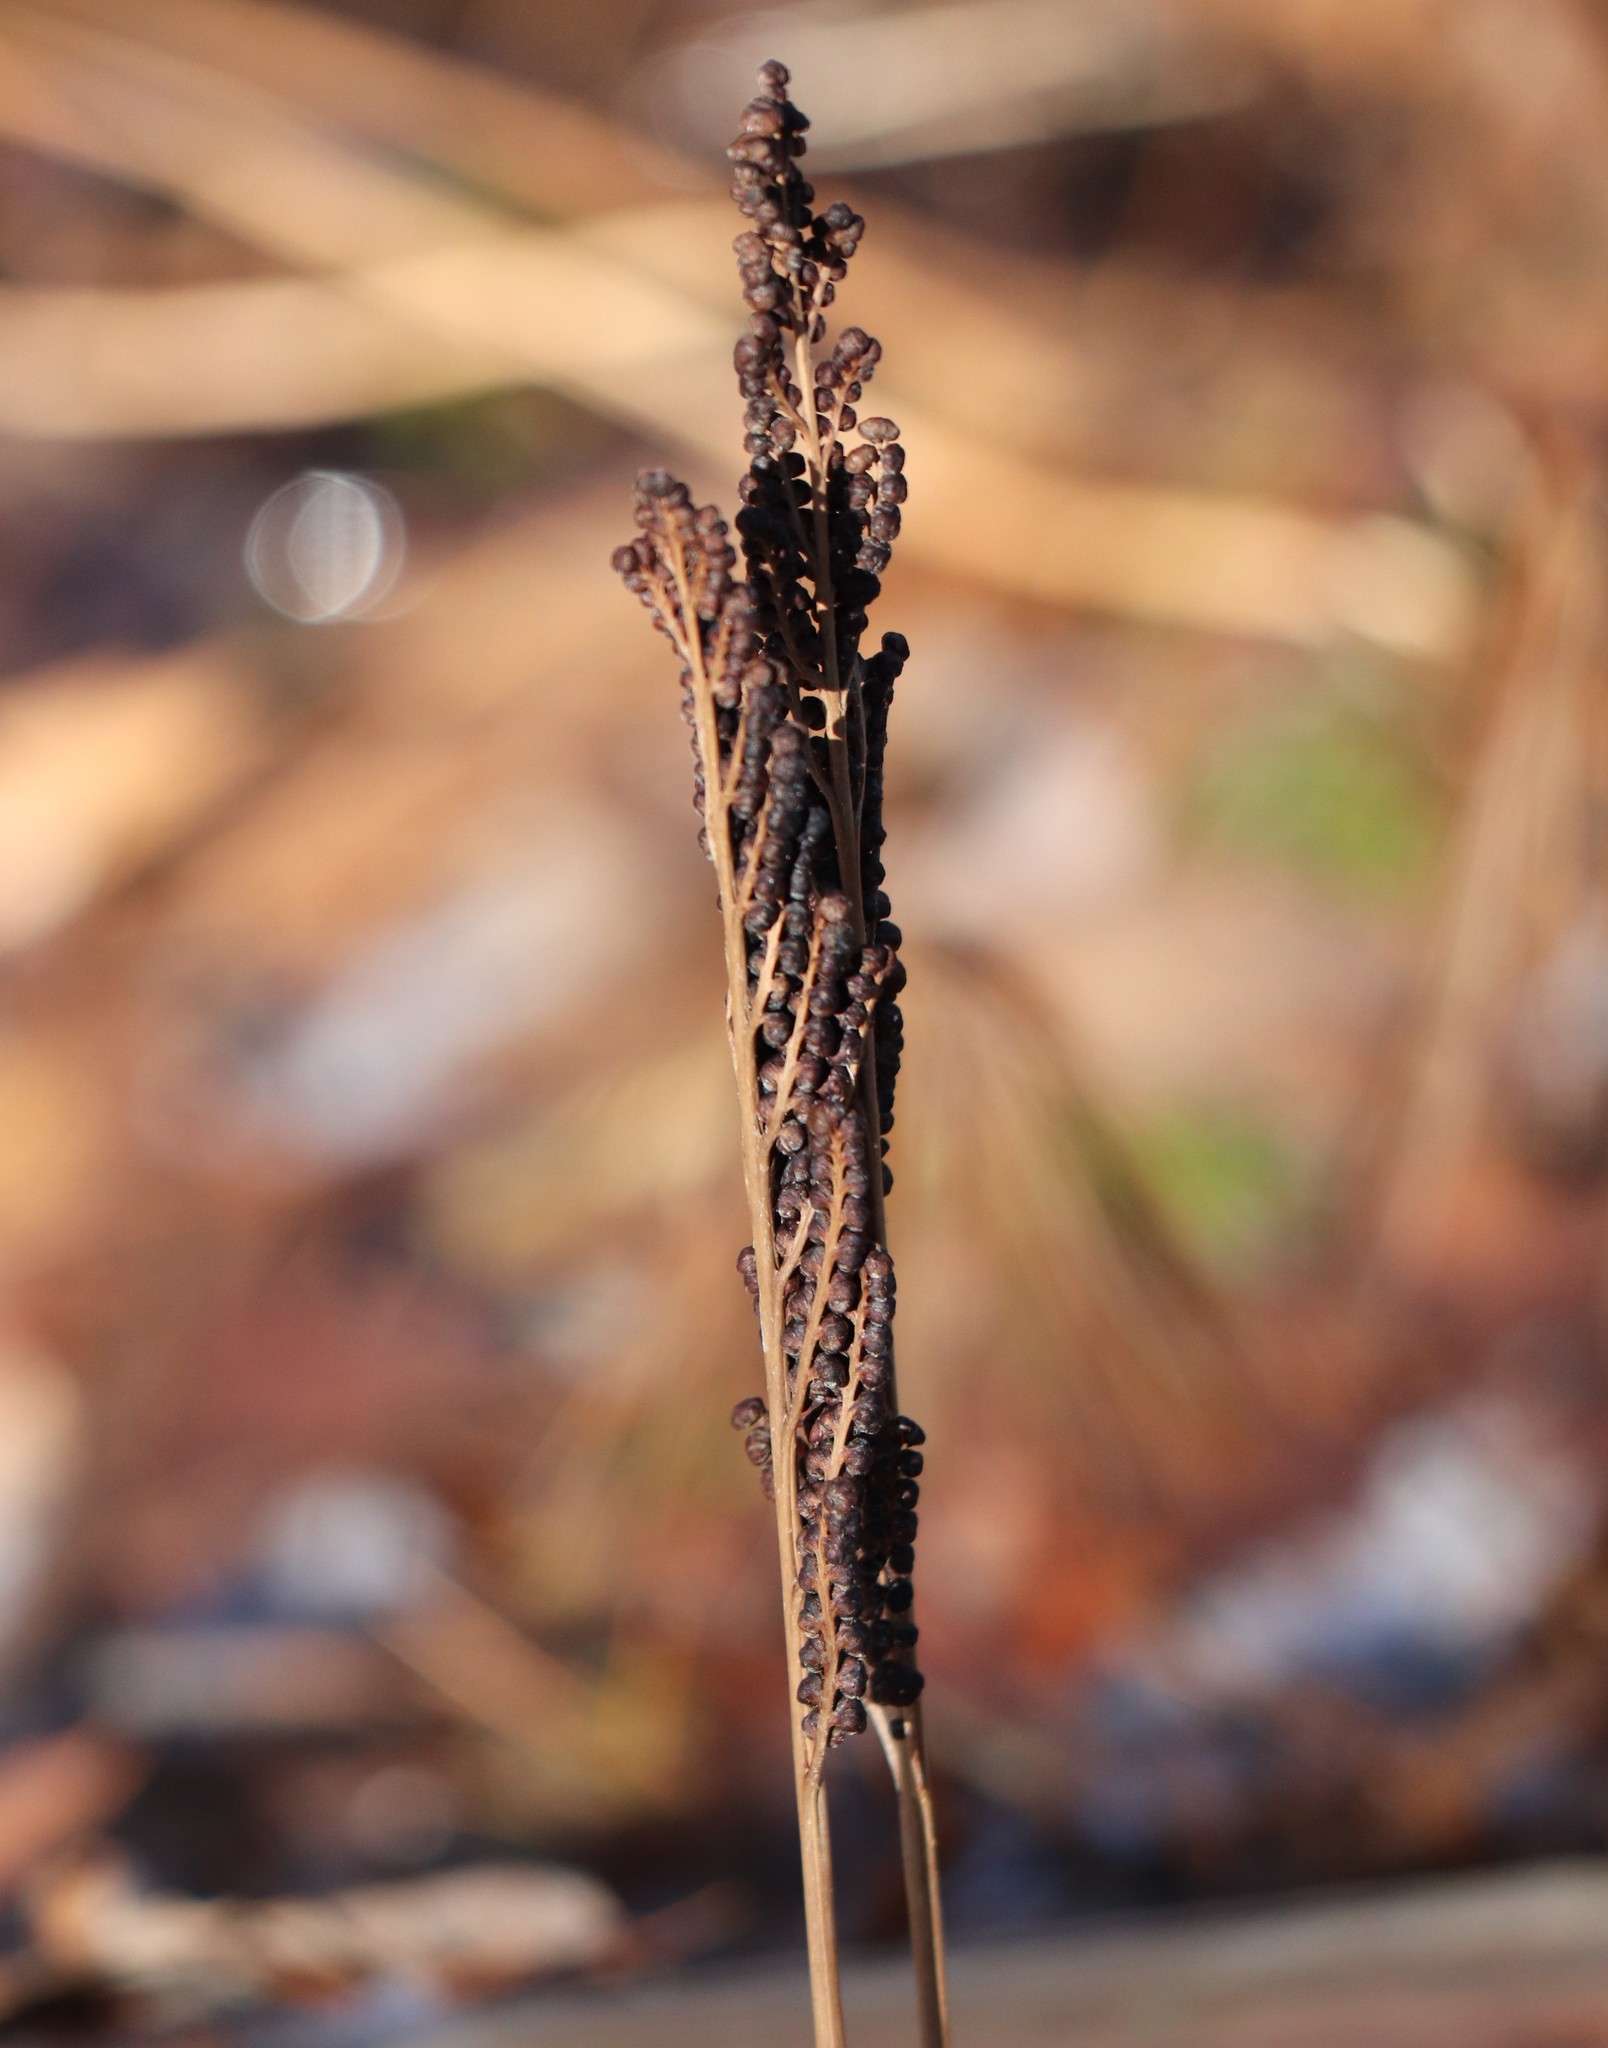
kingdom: Plantae
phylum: Tracheophyta
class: Polypodiopsida
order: Polypodiales
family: Onocleaceae
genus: Onoclea
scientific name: Onoclea sensibilis
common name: Sensitive fern
